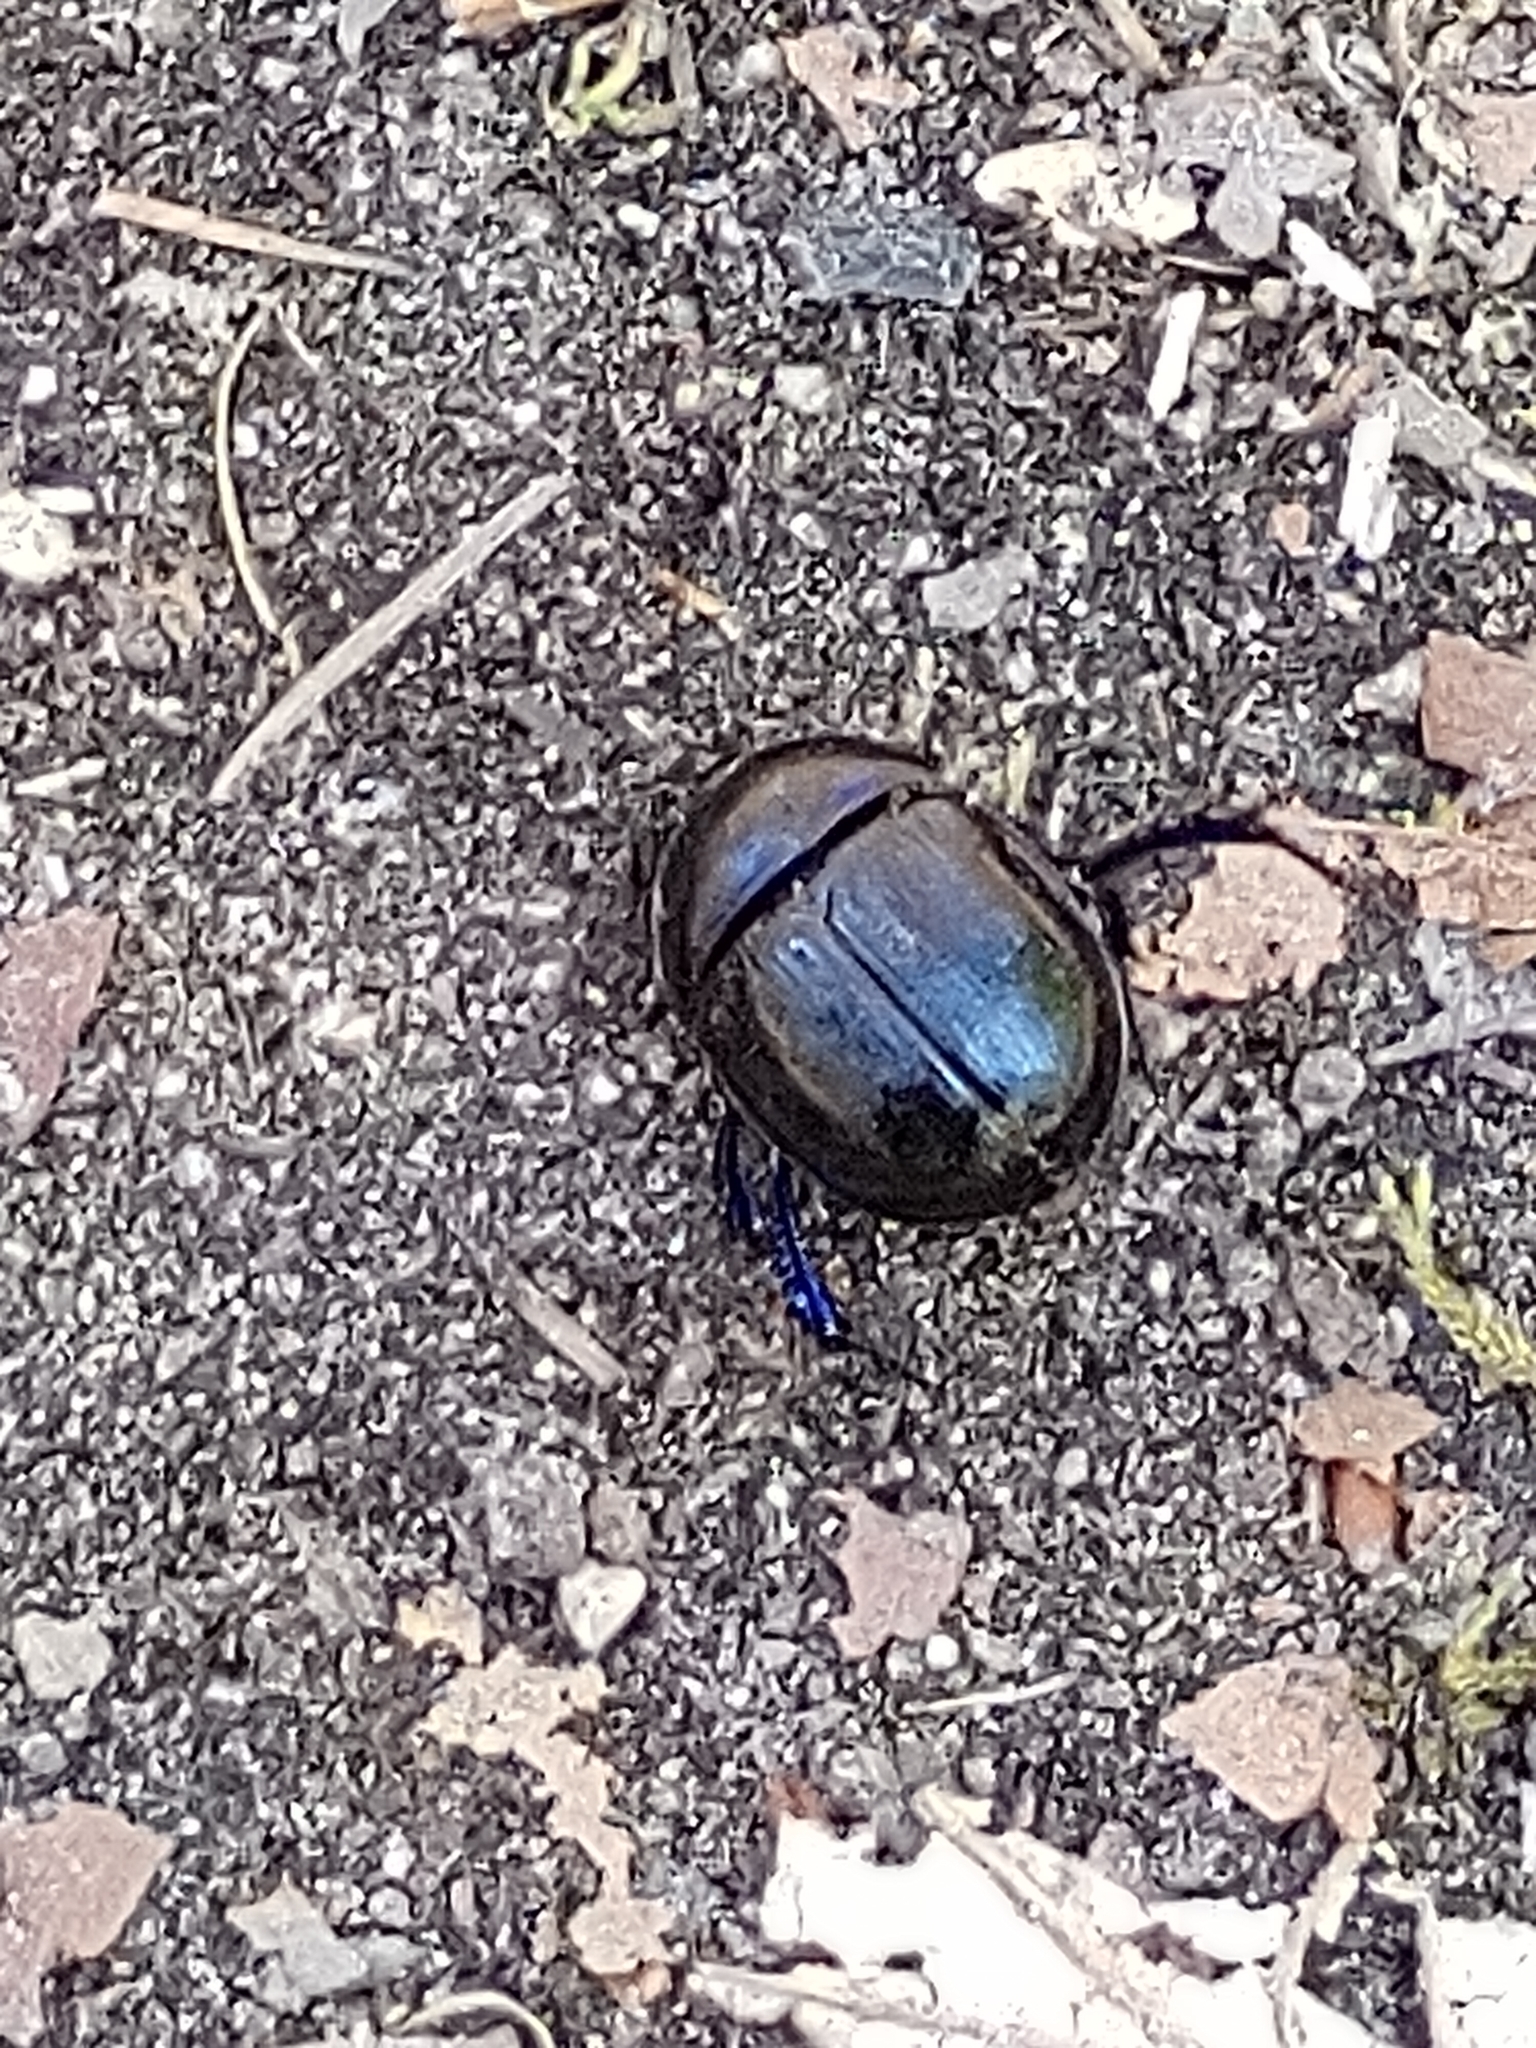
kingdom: Animalia
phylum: Arthropoda
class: Insecta
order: Coleoptera
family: Geotrupidae
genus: Anoplotrupes
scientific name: Anoplotrupes stercorosus
